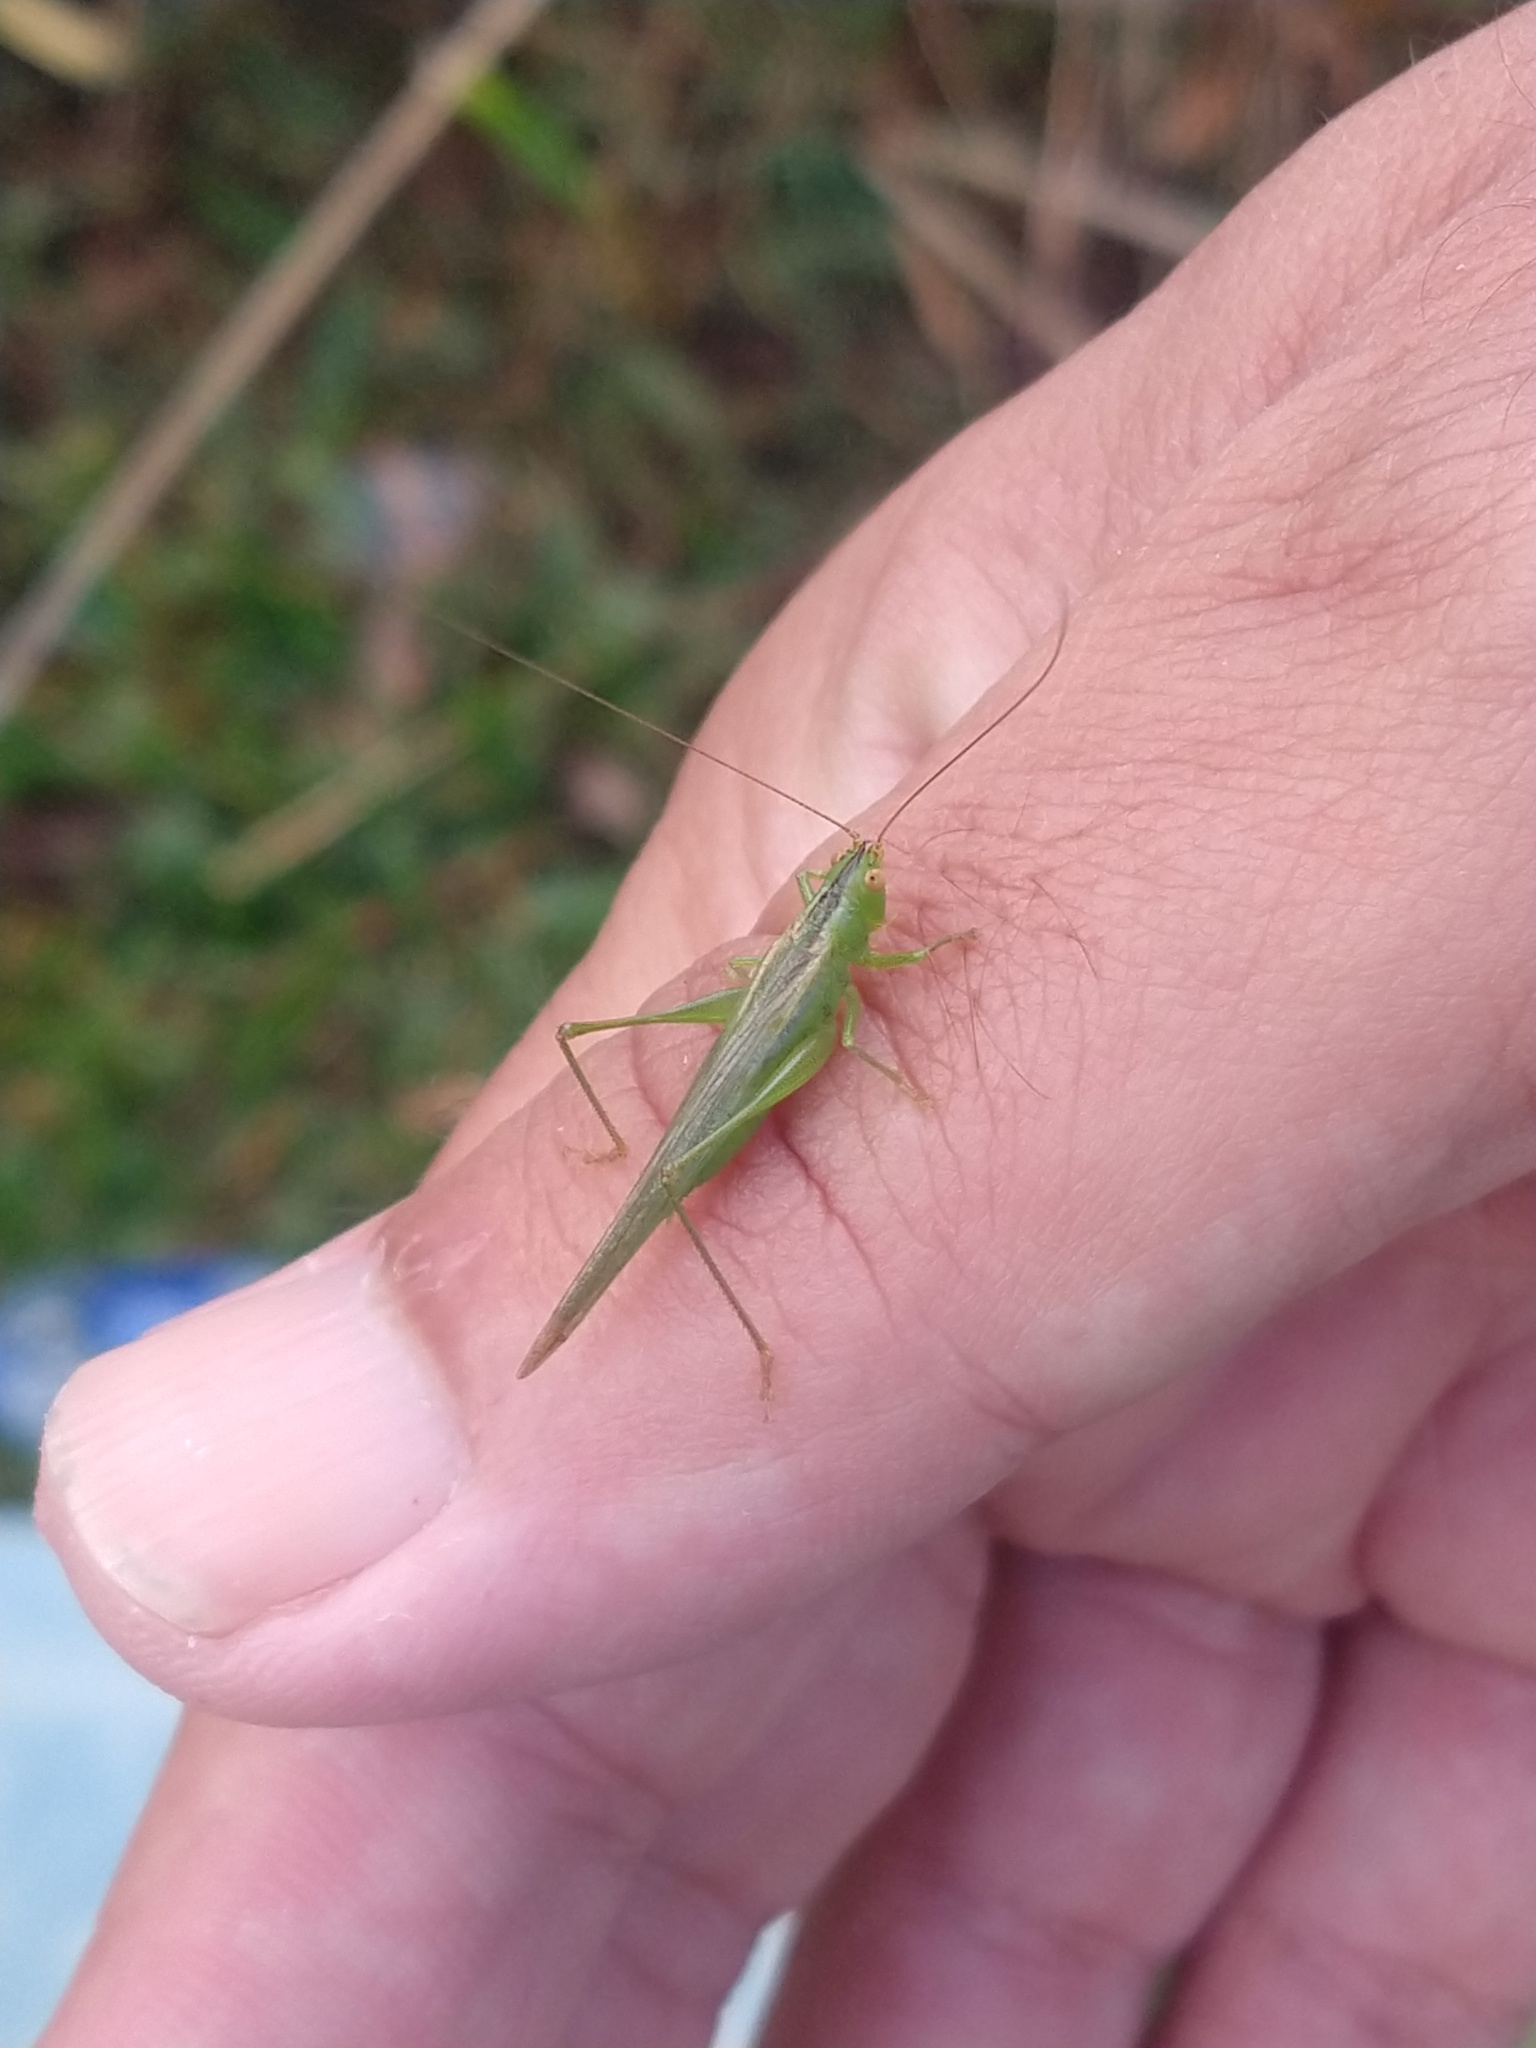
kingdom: Animalia
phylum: Arthropoda
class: Insecta
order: Orthoptera
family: Tettigoniidae
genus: Conocephalus
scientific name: Conocephalus longipes
